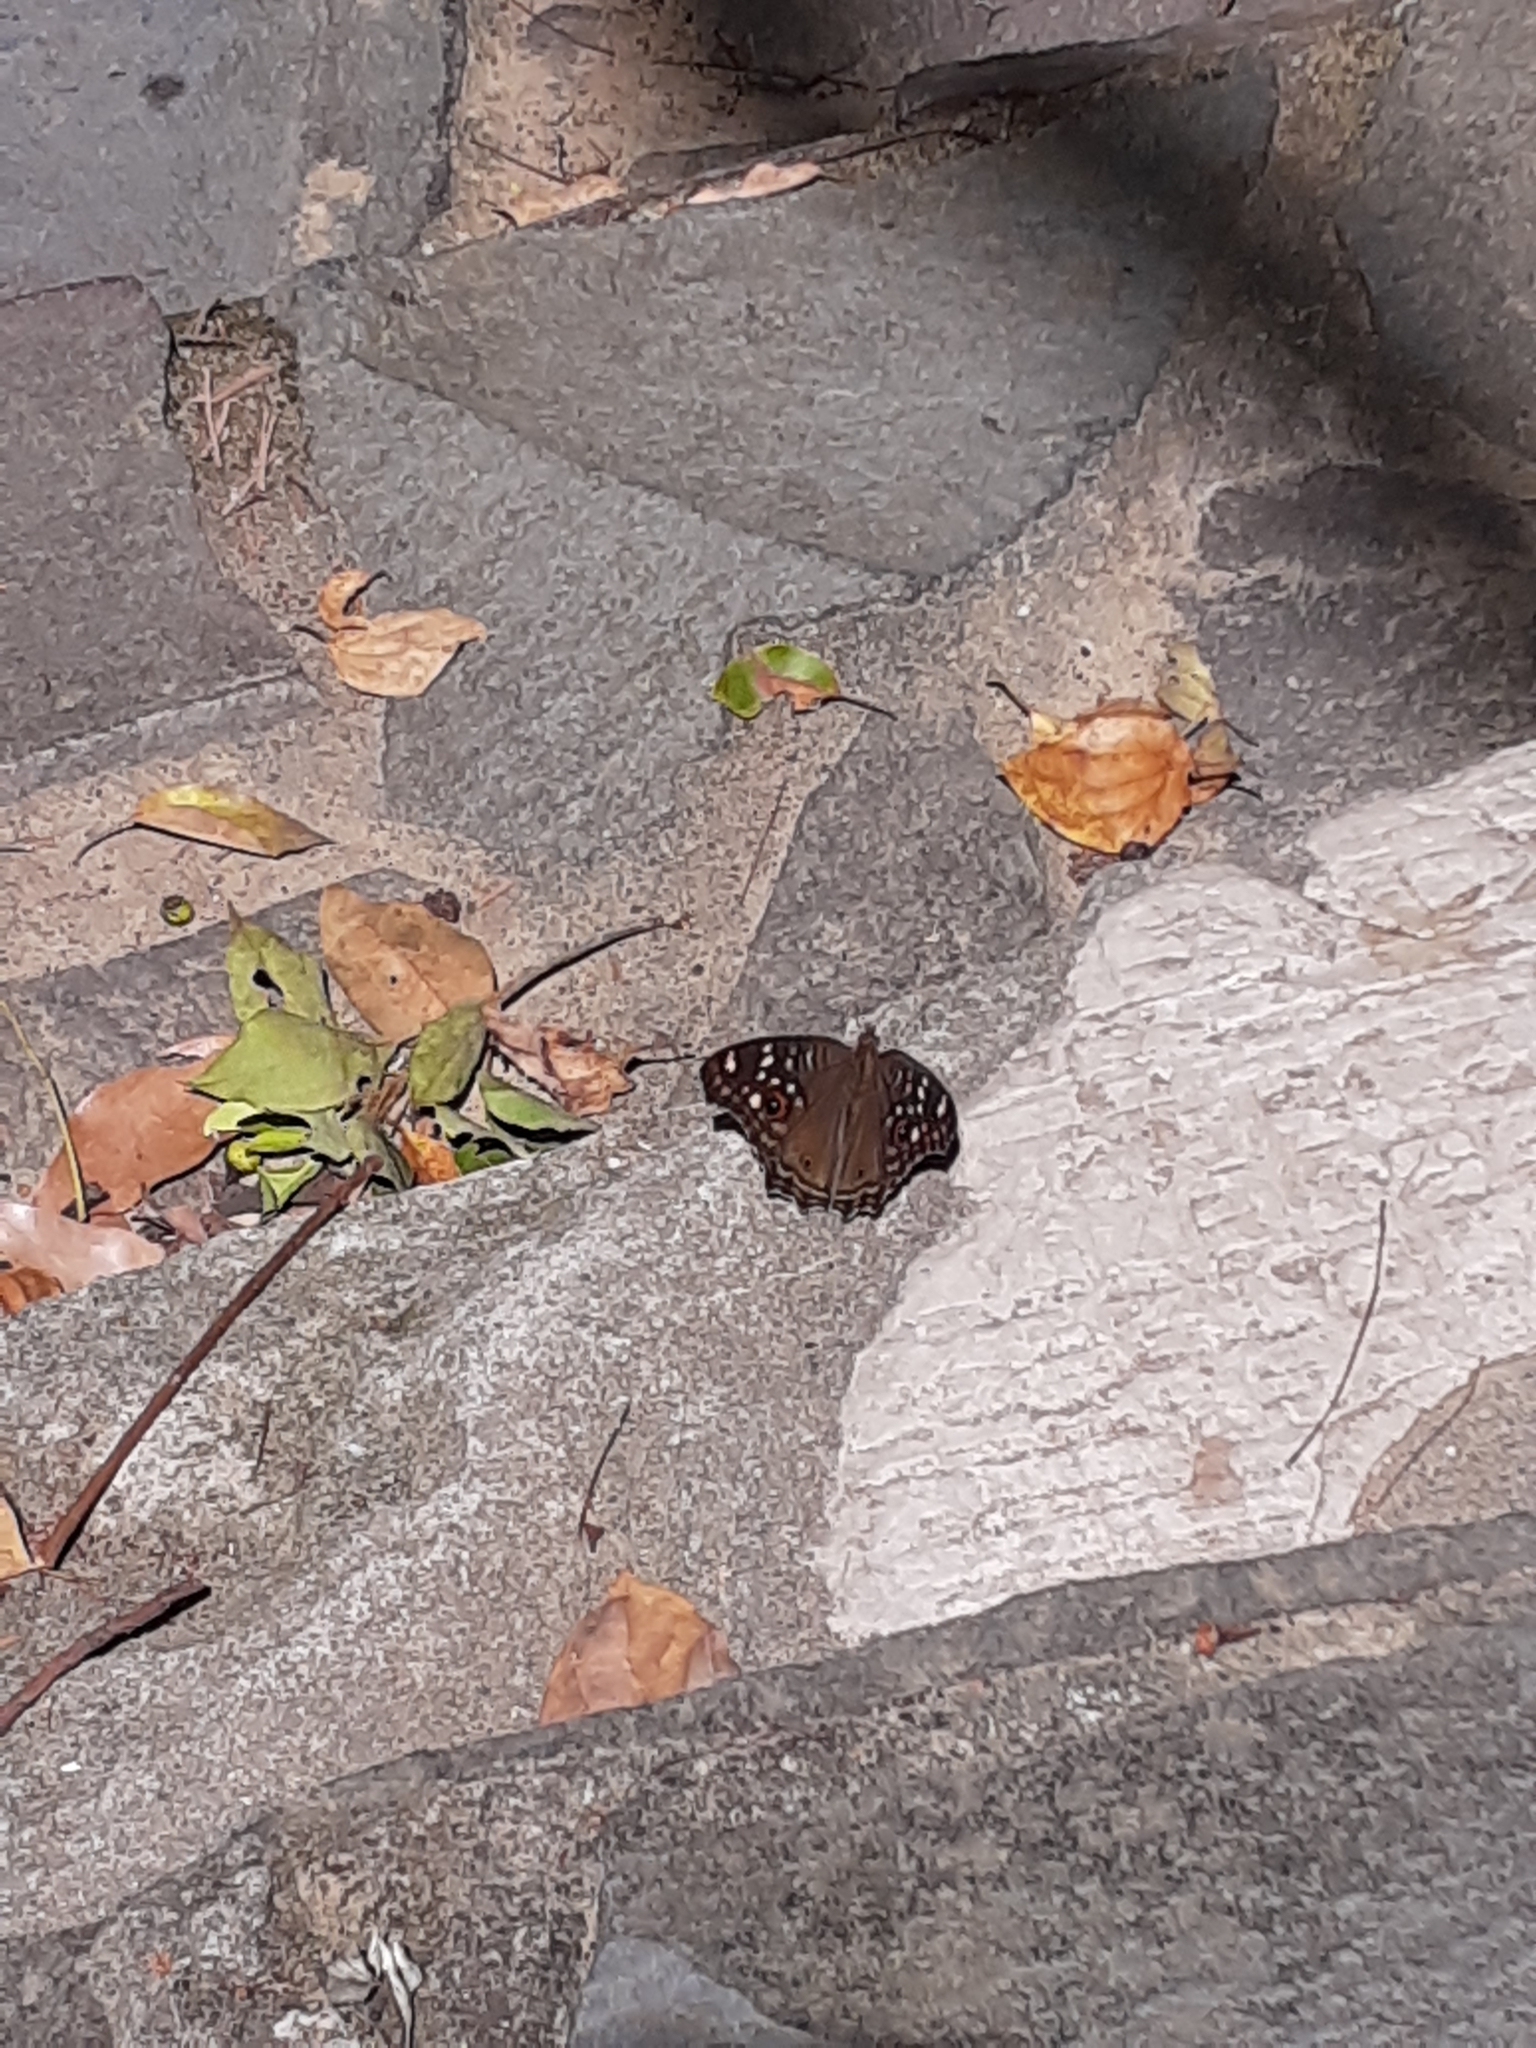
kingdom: Animalia
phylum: Arthropoda
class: Insecta
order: Lepidoptera
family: Nymphalidae
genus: Junonia
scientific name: Junonia lemonias
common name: Lemon pansy
